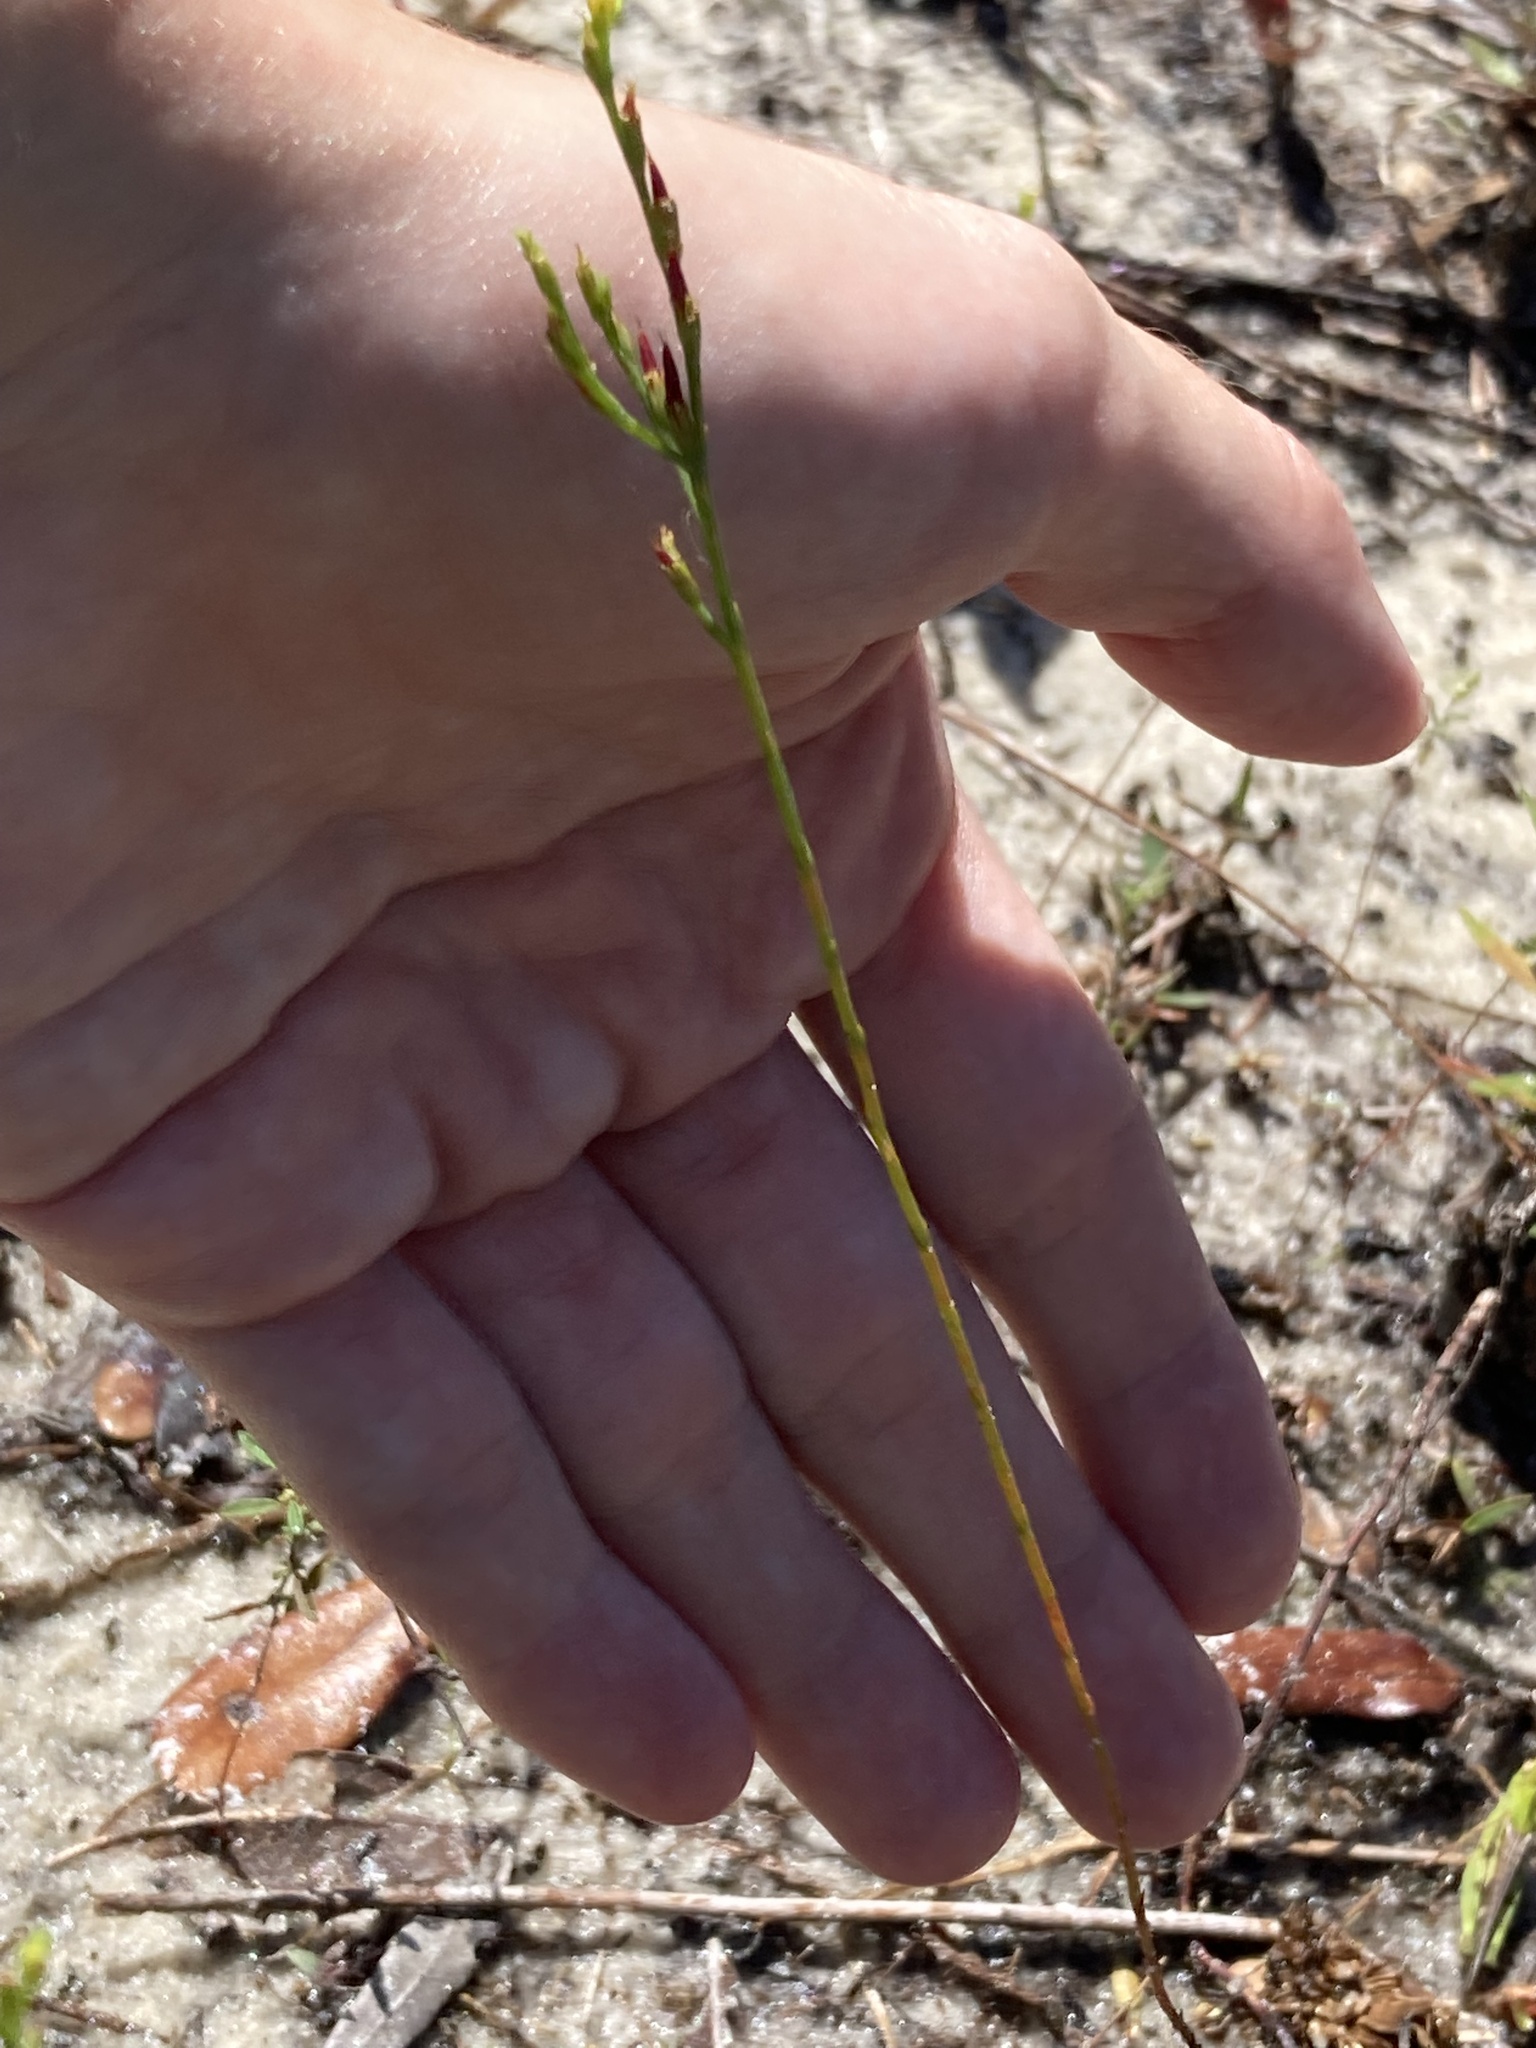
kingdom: Plantae
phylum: Tracheophyta
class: Magnoliopsida
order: Malpighiales
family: Hypericaceae
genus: Hypericum
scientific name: Hypericum gentianoides
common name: Gentian-leaved st. john's-wort
